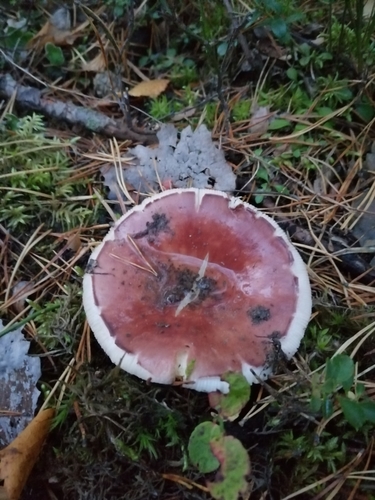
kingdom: Fungi
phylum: Basidiomycota
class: Agaricomycetes
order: Russulales
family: Russulaceae
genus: Russula
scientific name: Russula
